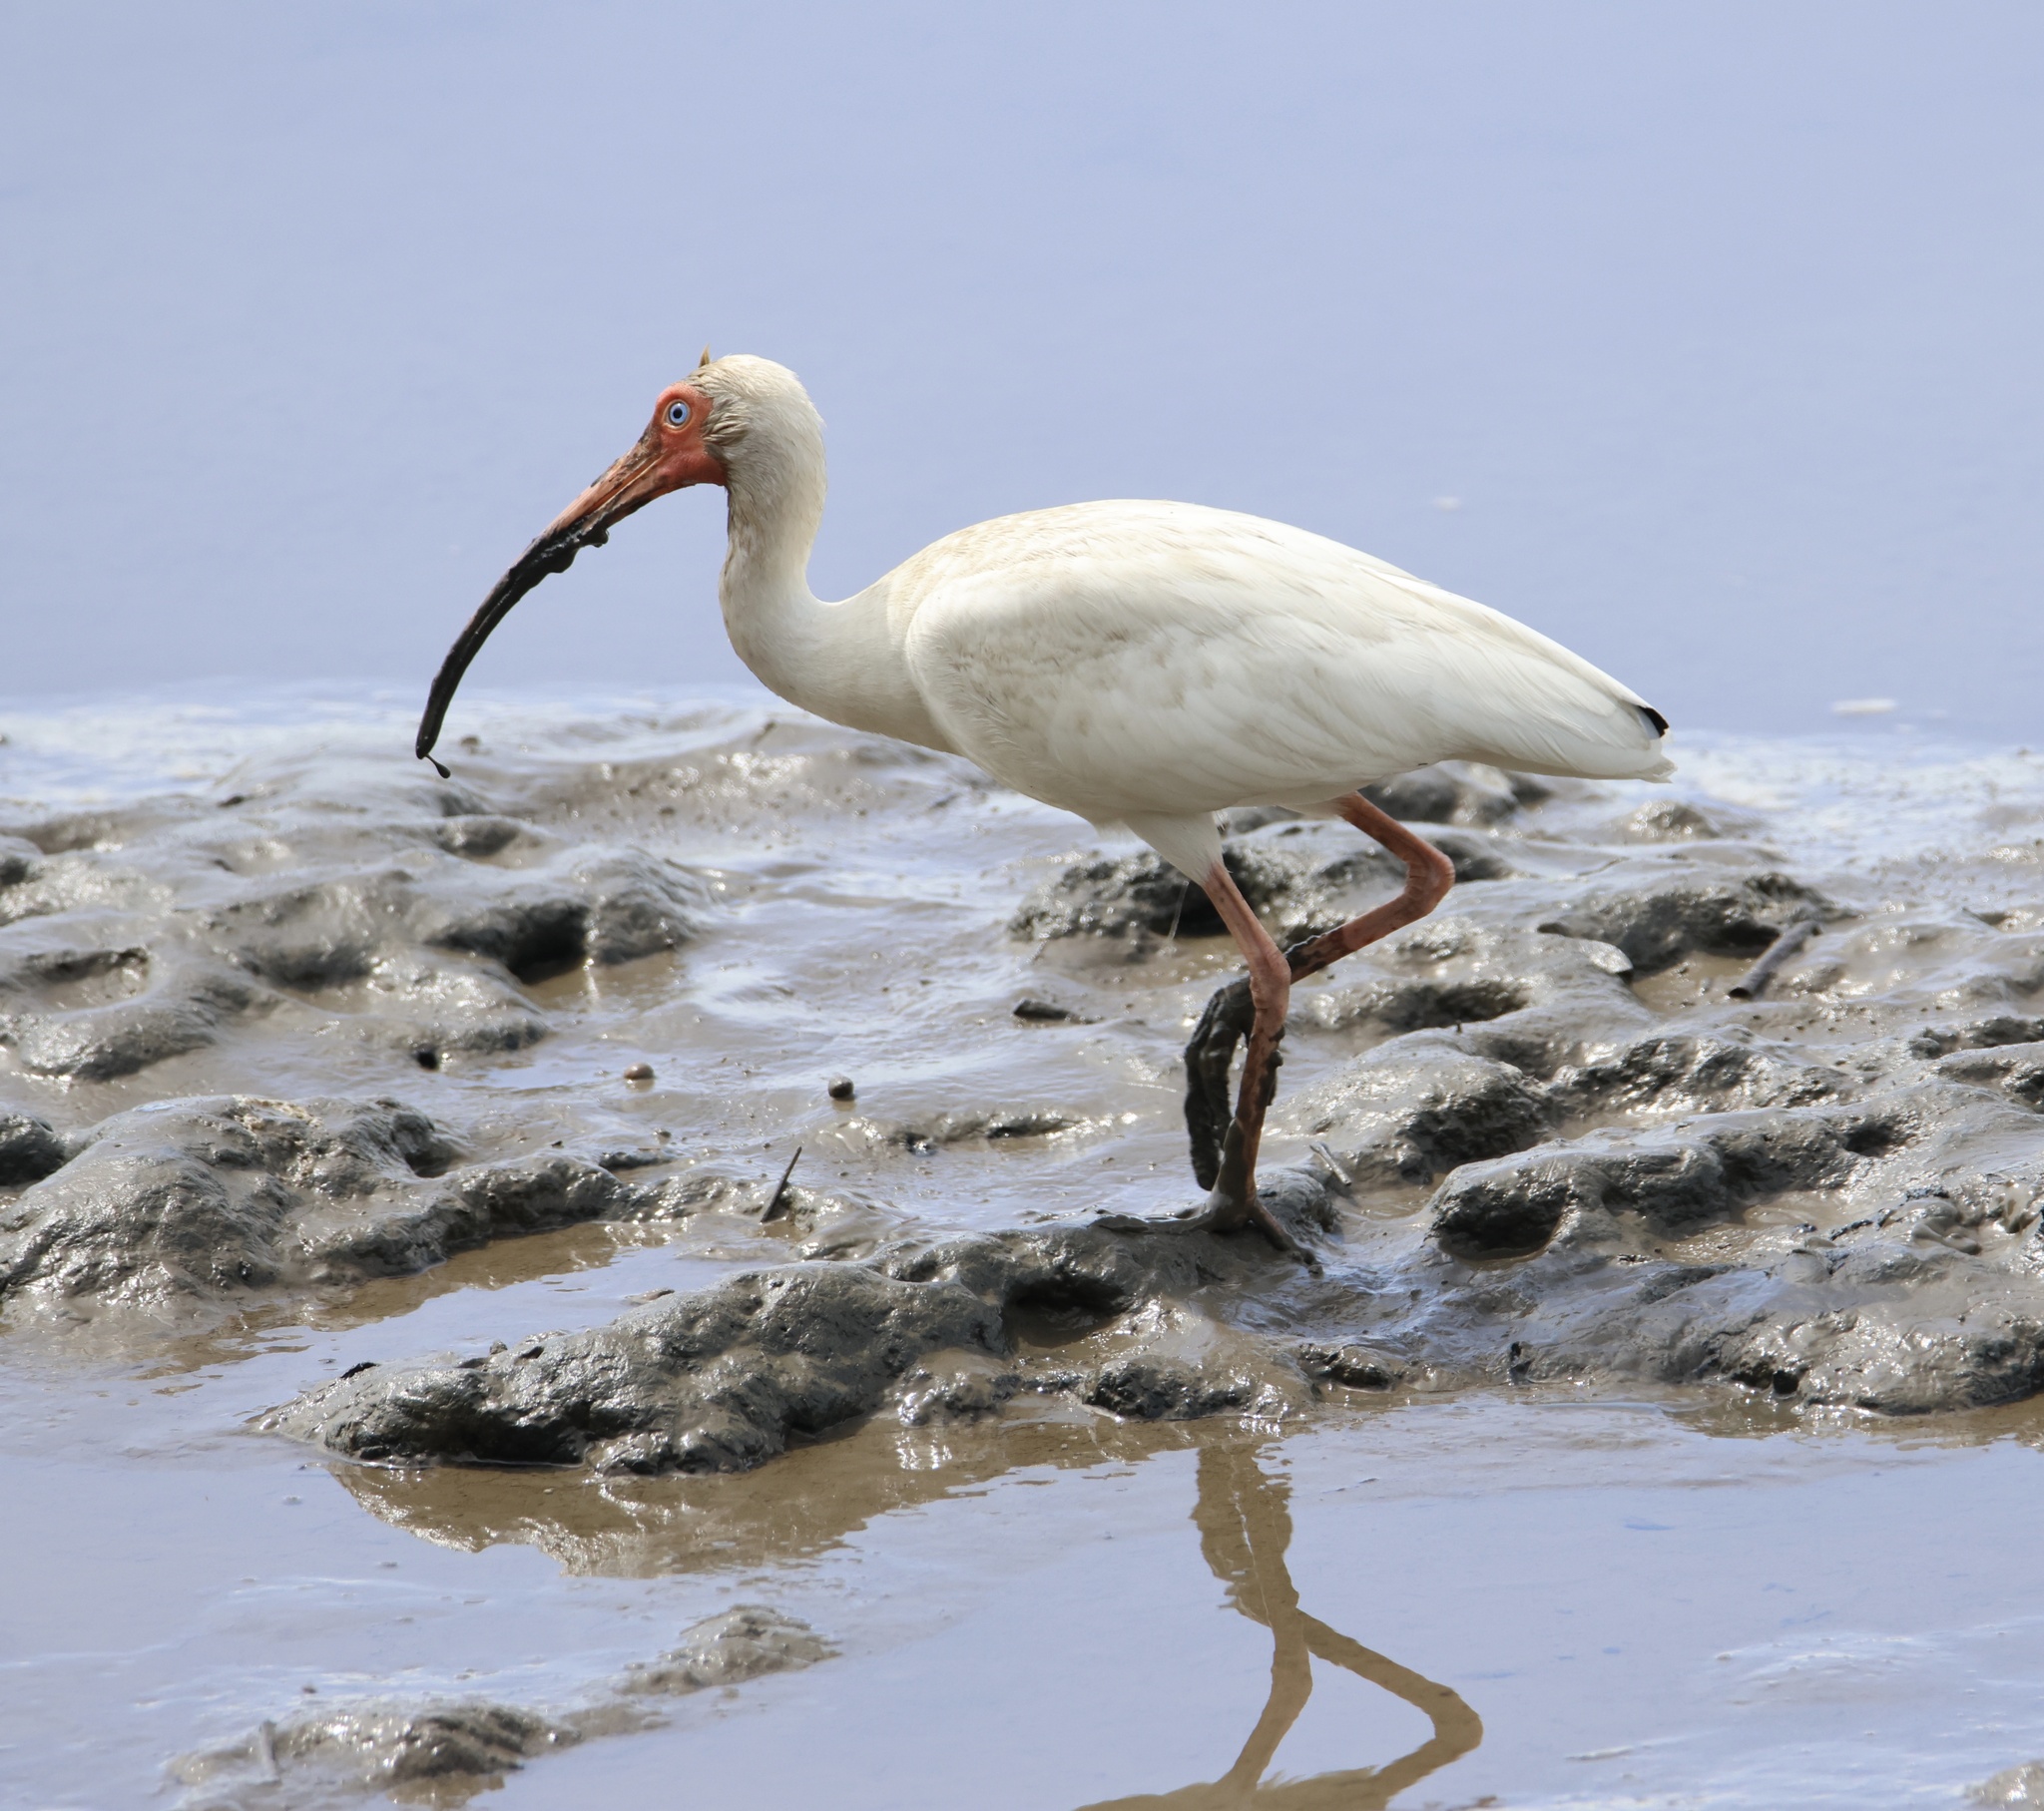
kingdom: Animalia
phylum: Chordata
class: Aves
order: Pelecaniformes
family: Threskiornithidae
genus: Eudocimus
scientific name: Eudocimus albus
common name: White ibis
